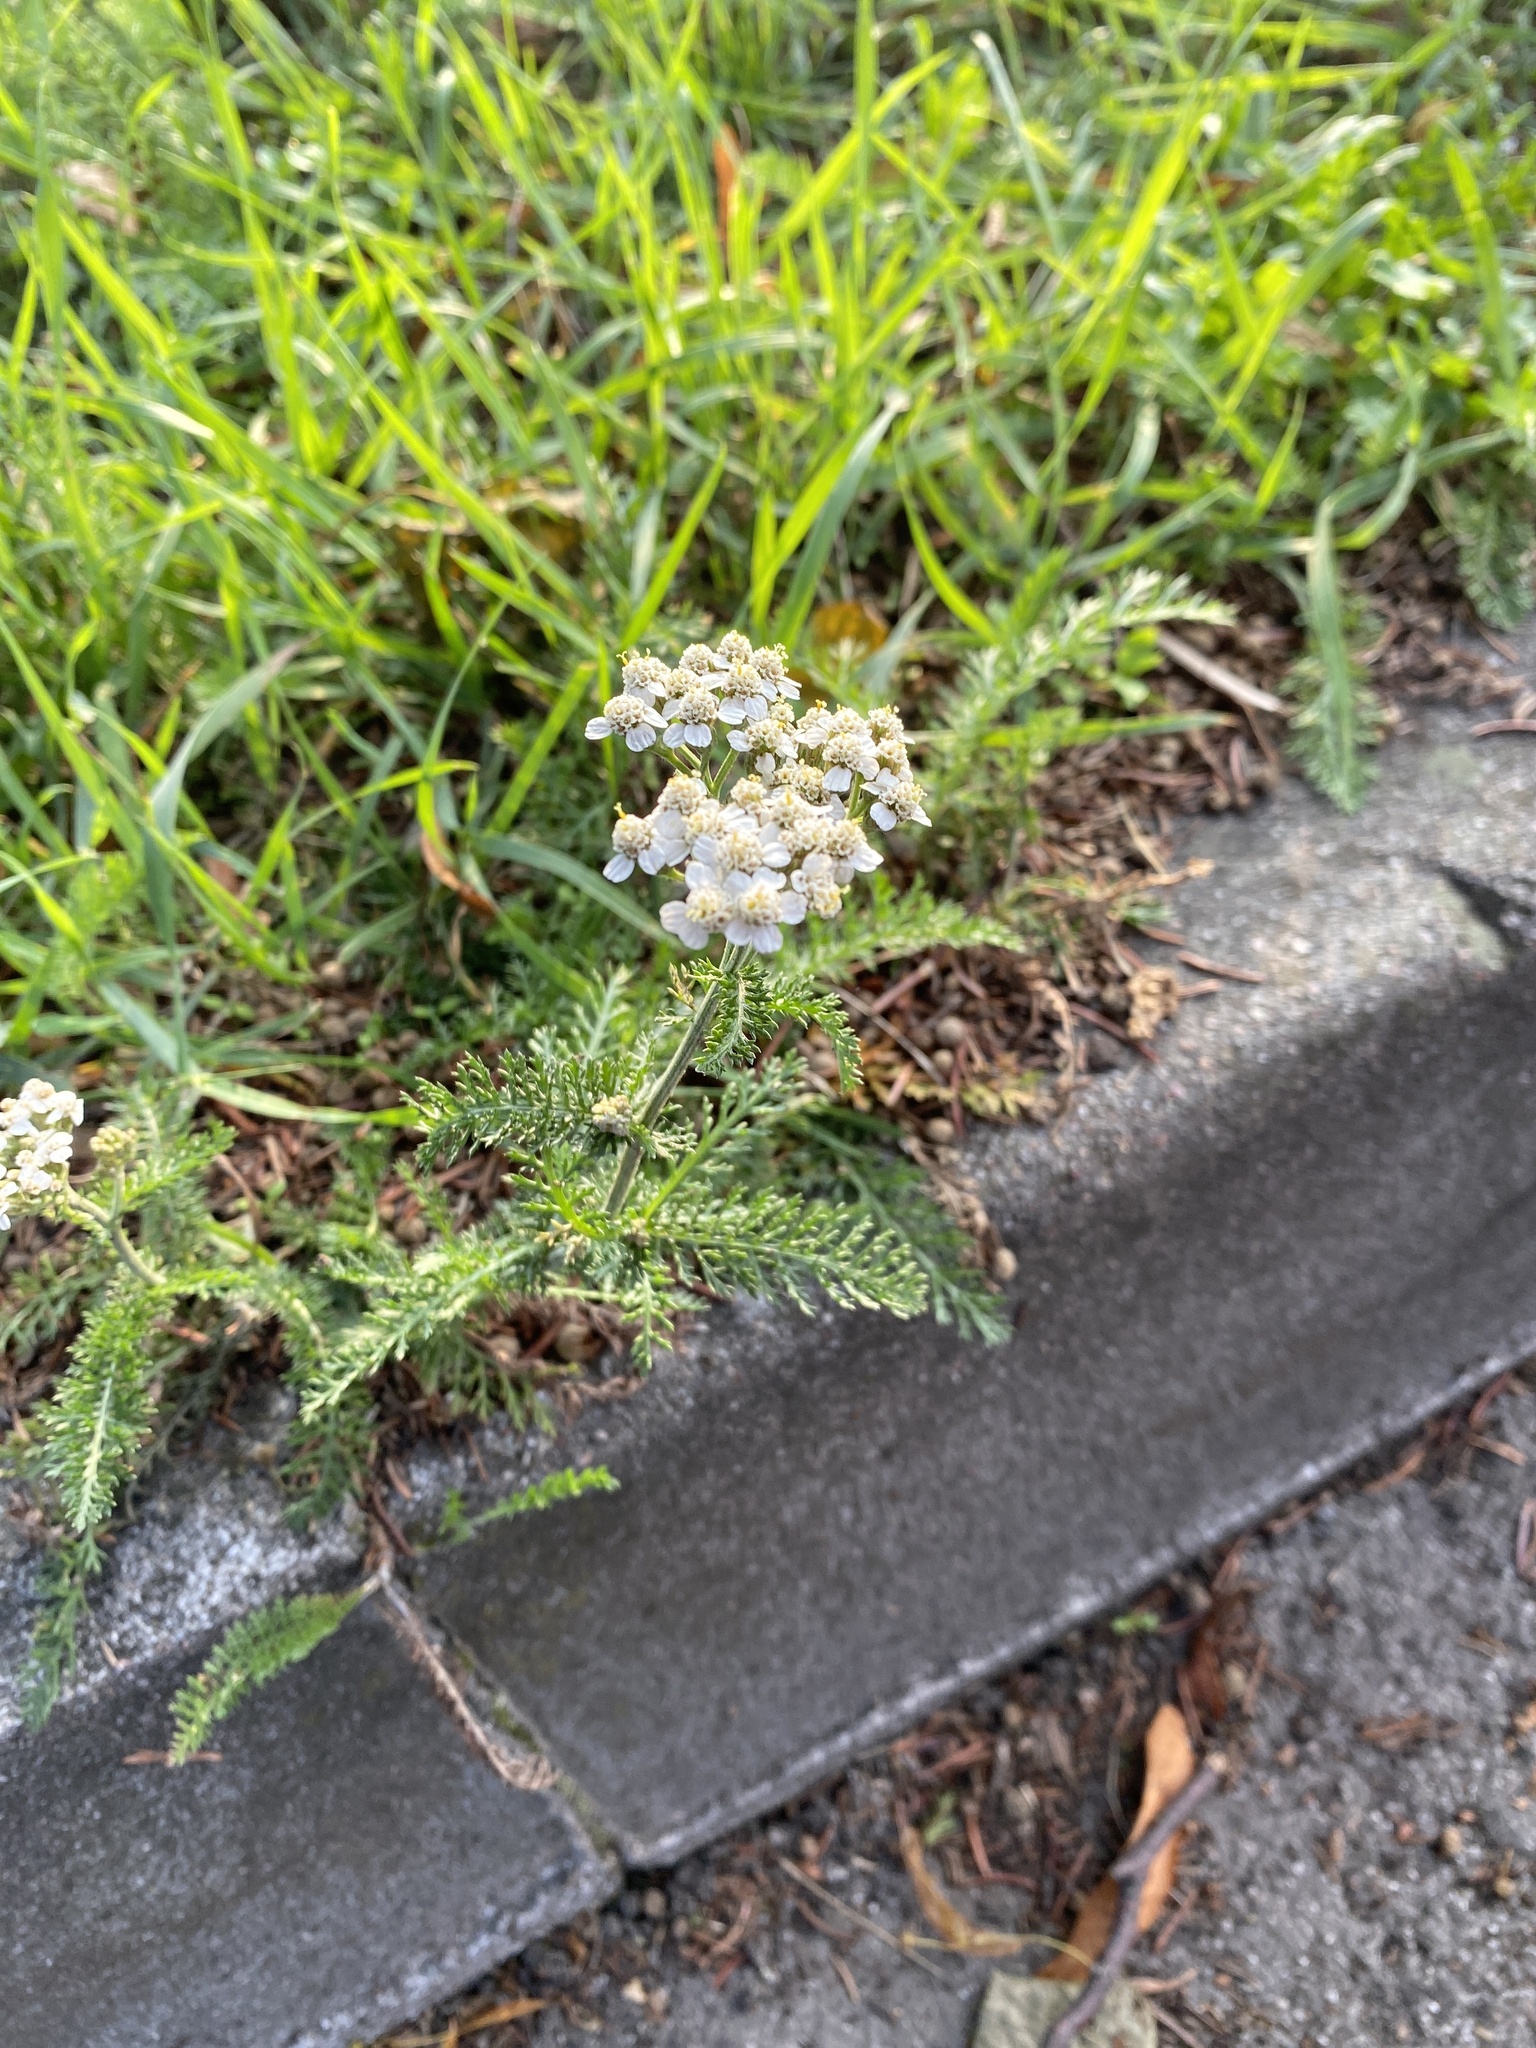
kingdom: Plantae
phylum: Tracheophyta
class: Magnoliopsida
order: Asterales
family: Asteraceae
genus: Achillea
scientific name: Achillea millefolium
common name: Yarrow
